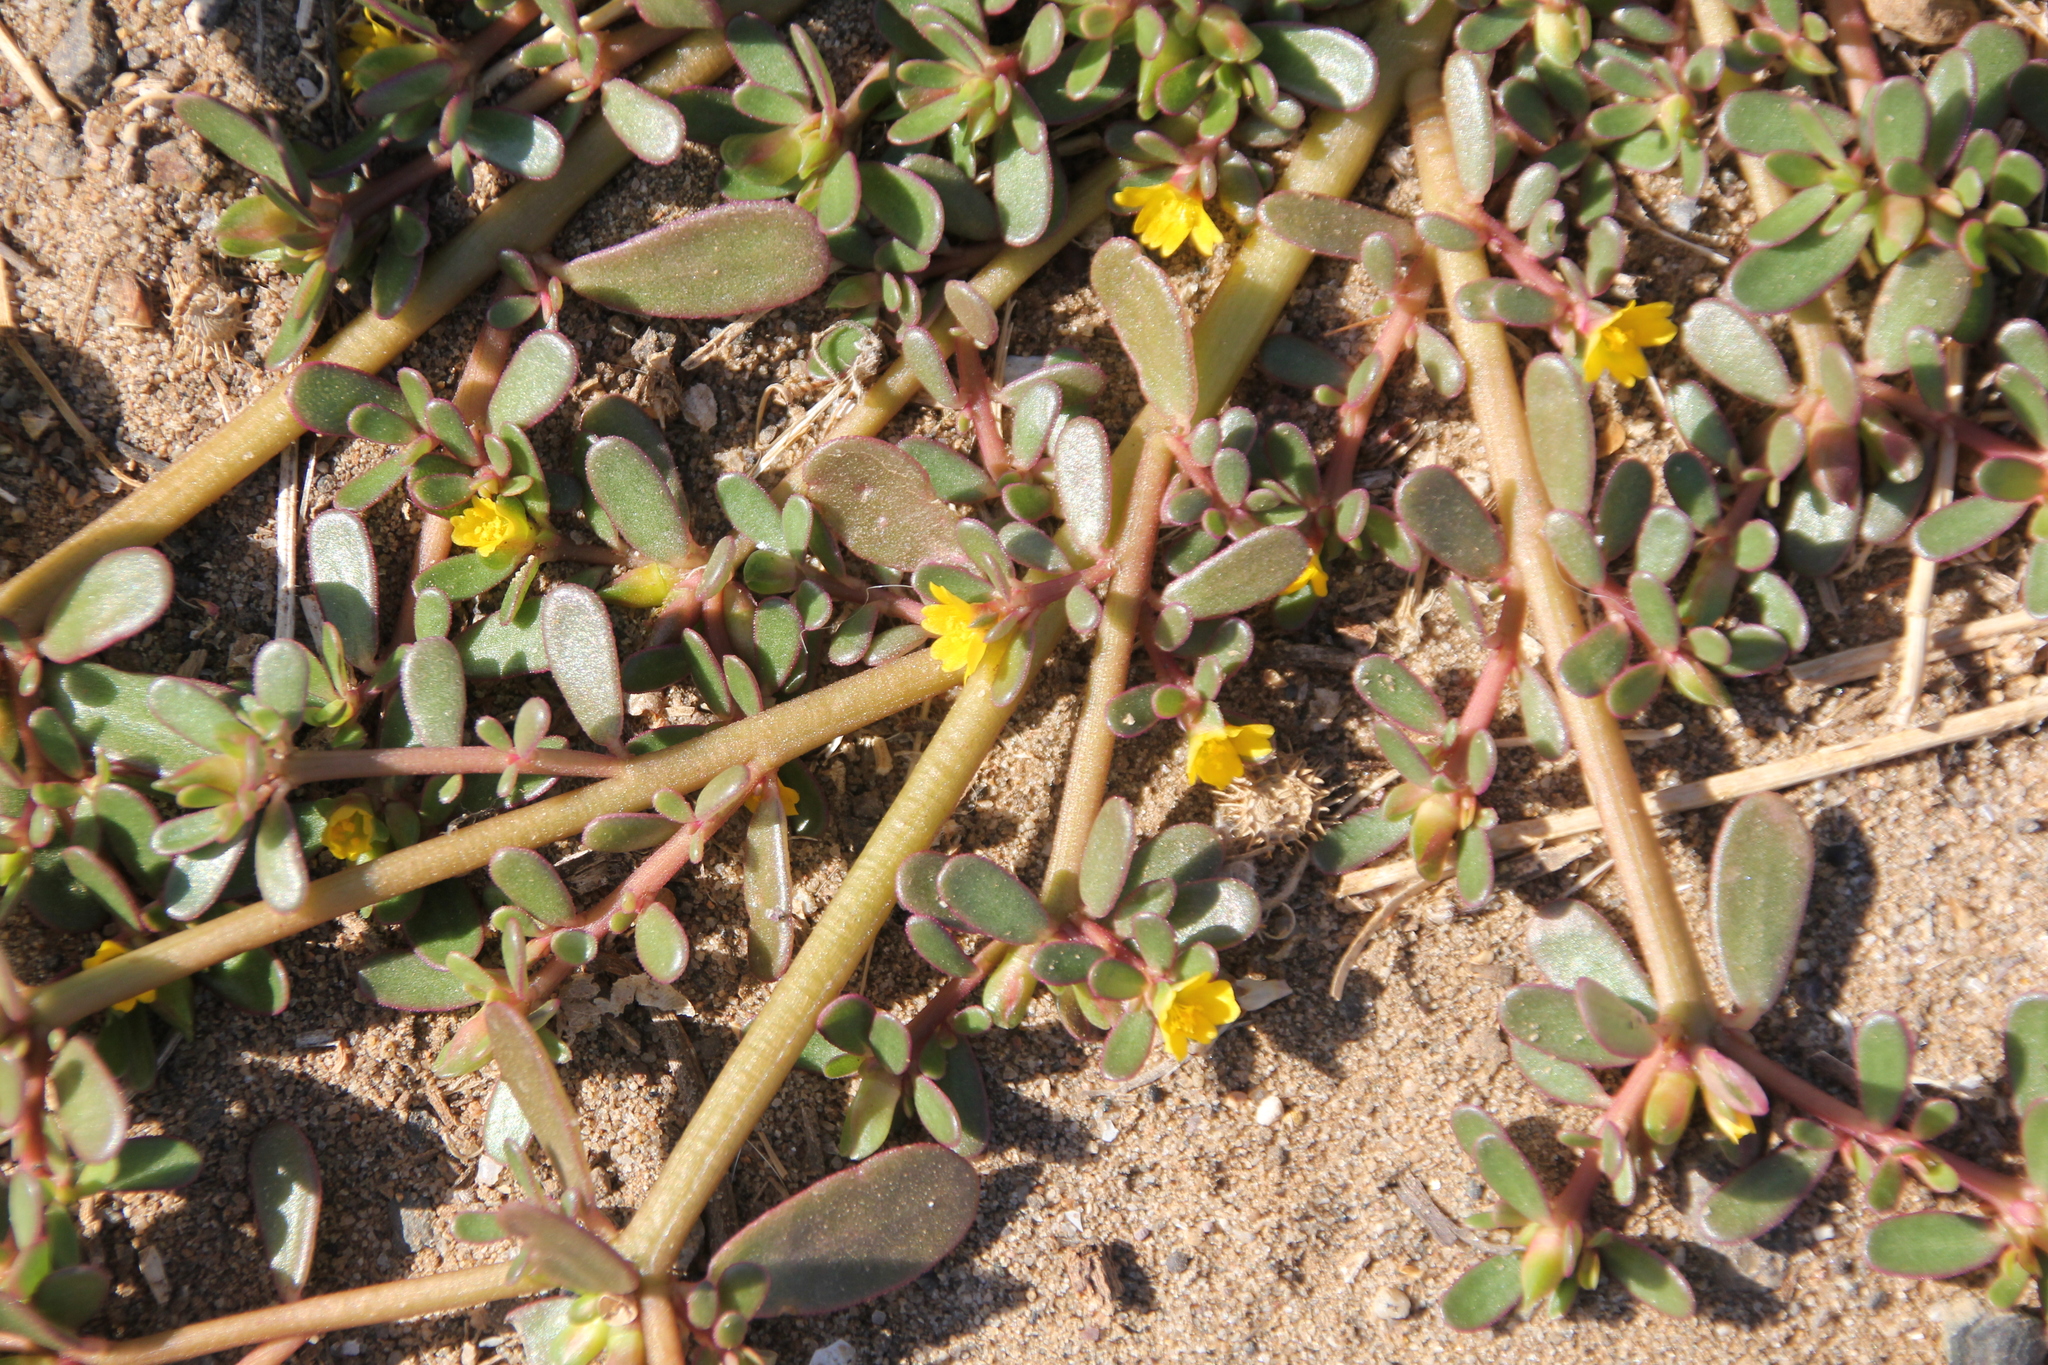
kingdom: Plantae
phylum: Tracheophyta
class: Magnoliopsida
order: Caryophyllales
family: Portulacaceae
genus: Portulaca
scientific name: Portulaca oleracea
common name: Common purslane
